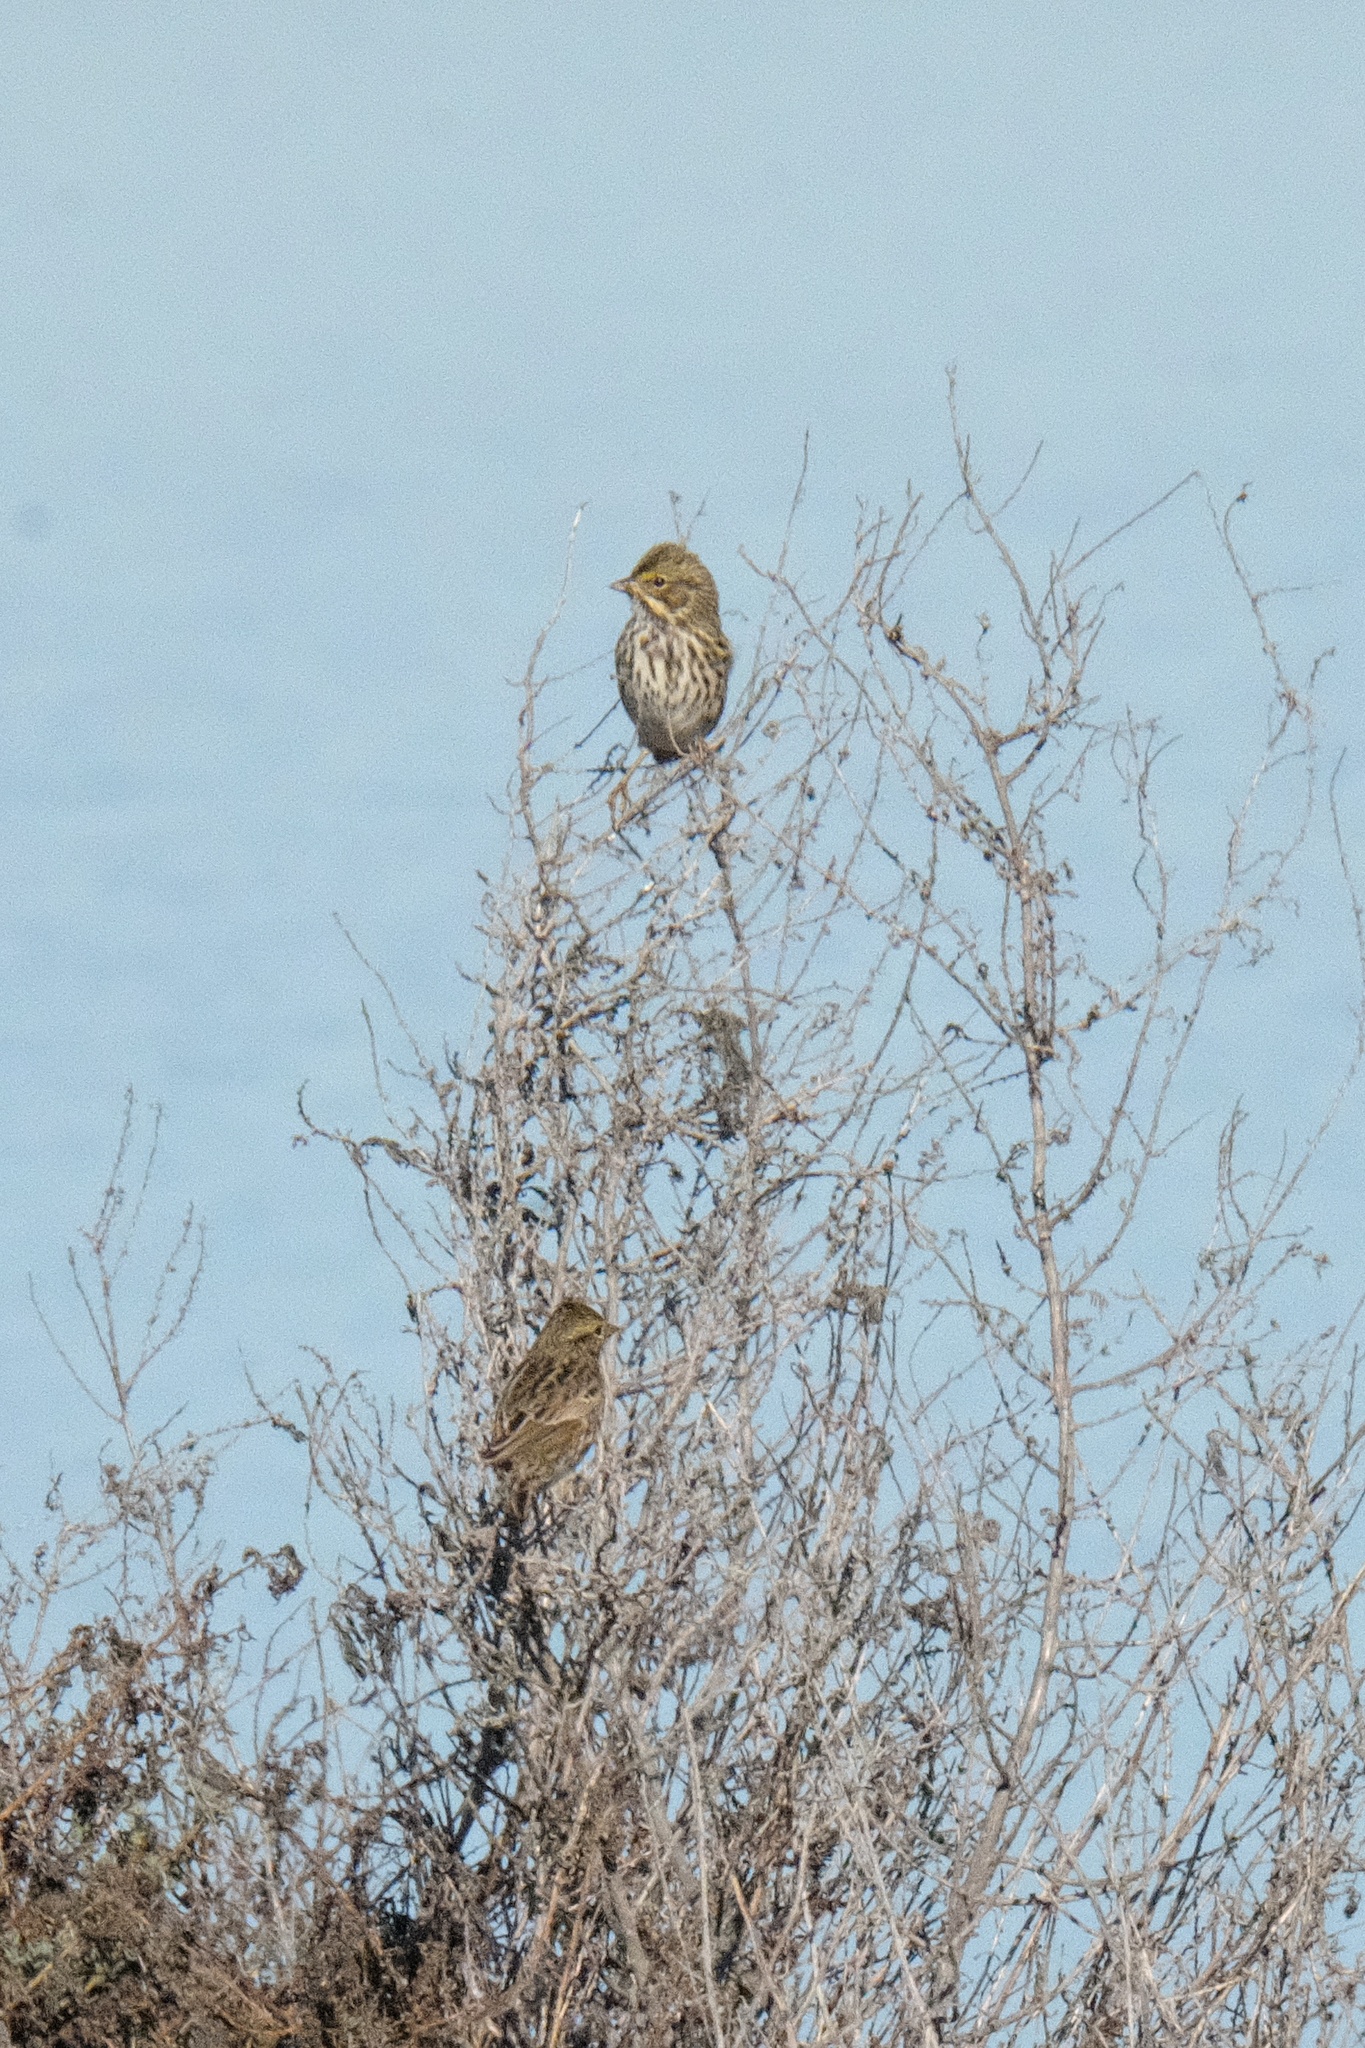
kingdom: Animalia
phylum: Chordata
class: Aves
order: Passeriformes
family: Passerellidae
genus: Passerculus
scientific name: Passerculus sandwichensis
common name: Savannah sparrow
